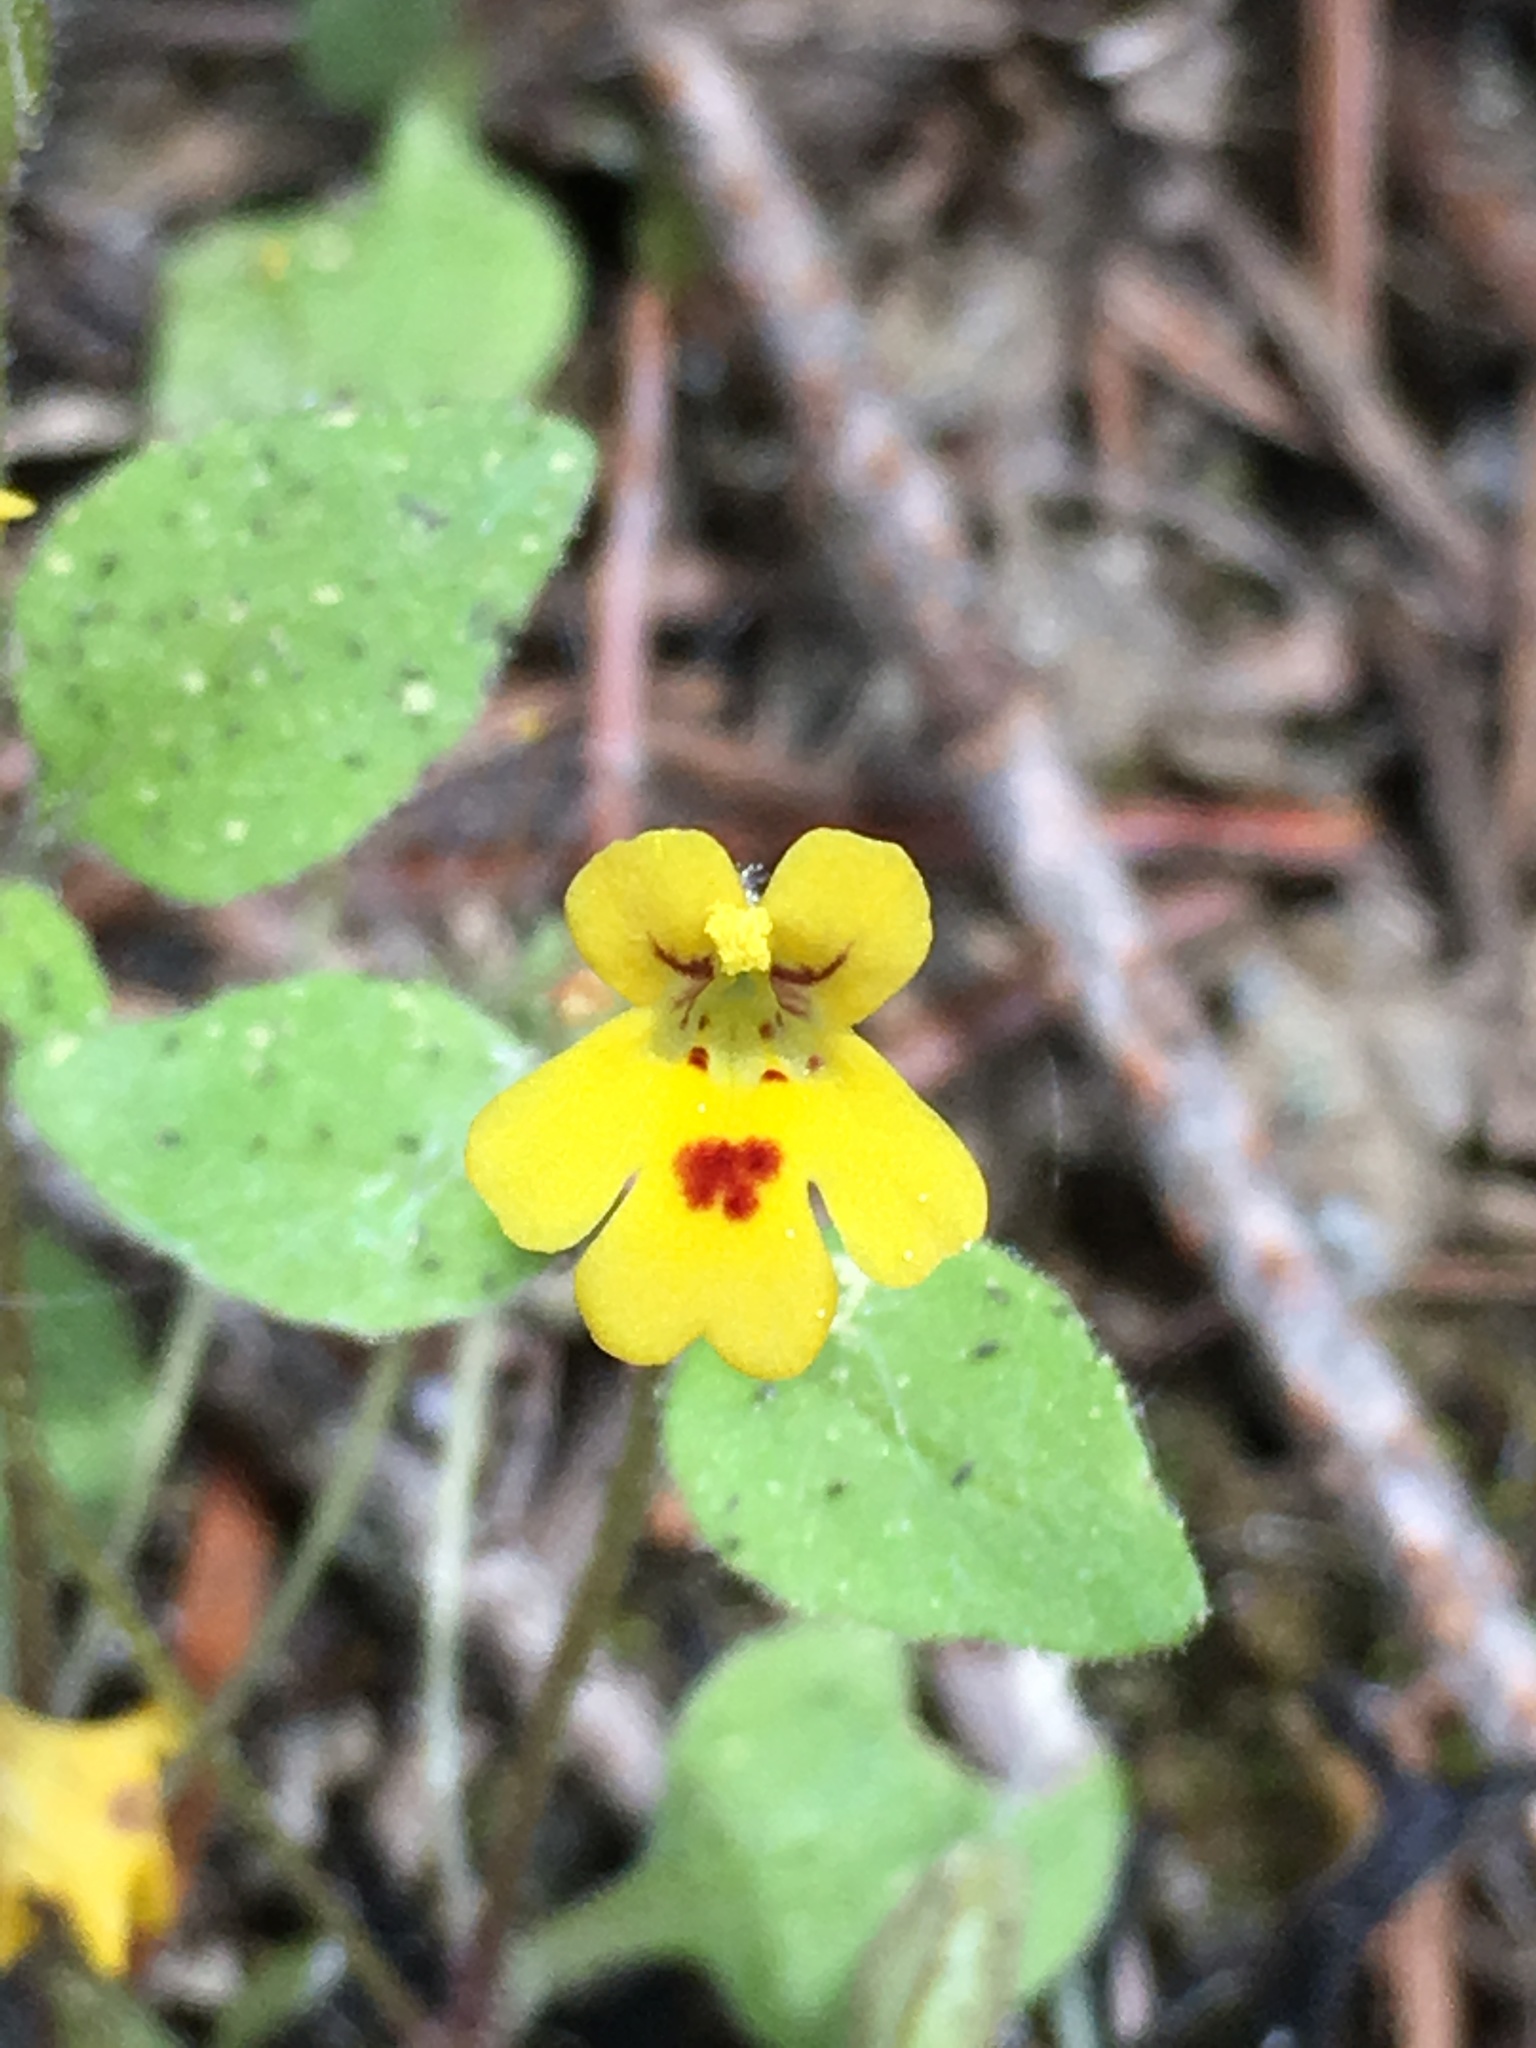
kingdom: Plantae
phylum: Tracheophyta
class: Magnoliopsida
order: Lamiales
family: Phrymaceae
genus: Erythranthe
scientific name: Erythranthe alsinoides
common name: Chickweed monkeyflower
